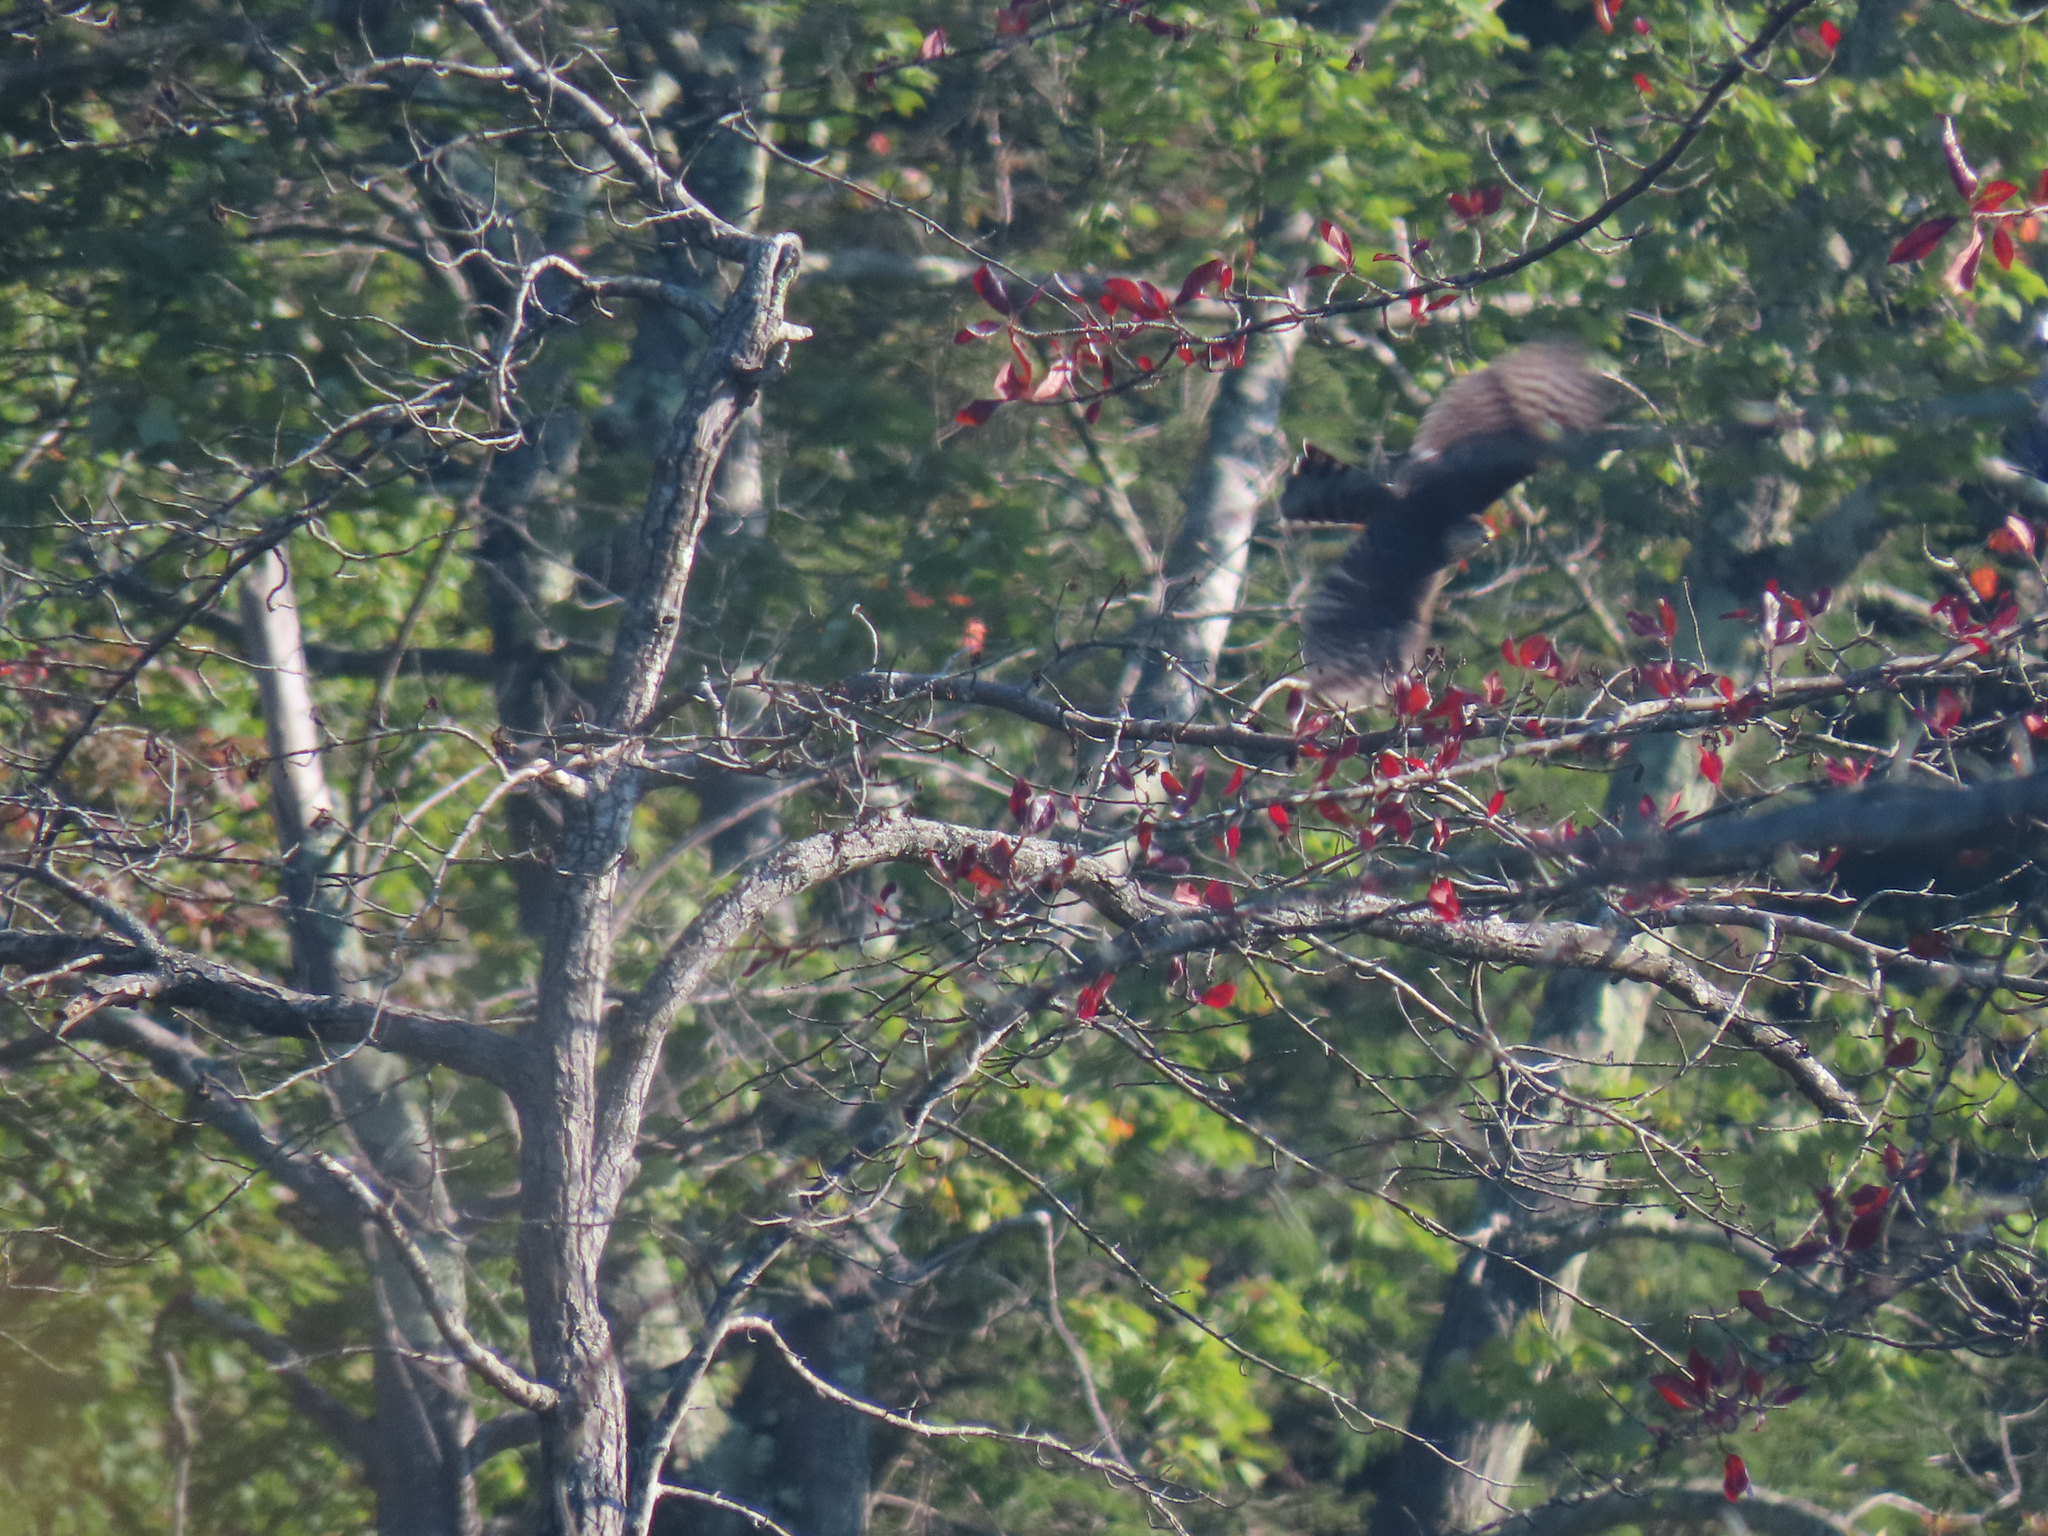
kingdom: Animalia
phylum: Chordata
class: Aves
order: Accipitriformes
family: Accipitridae
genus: Accipiter
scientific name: Accipiter striatus
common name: Sharp-shinned hawk
